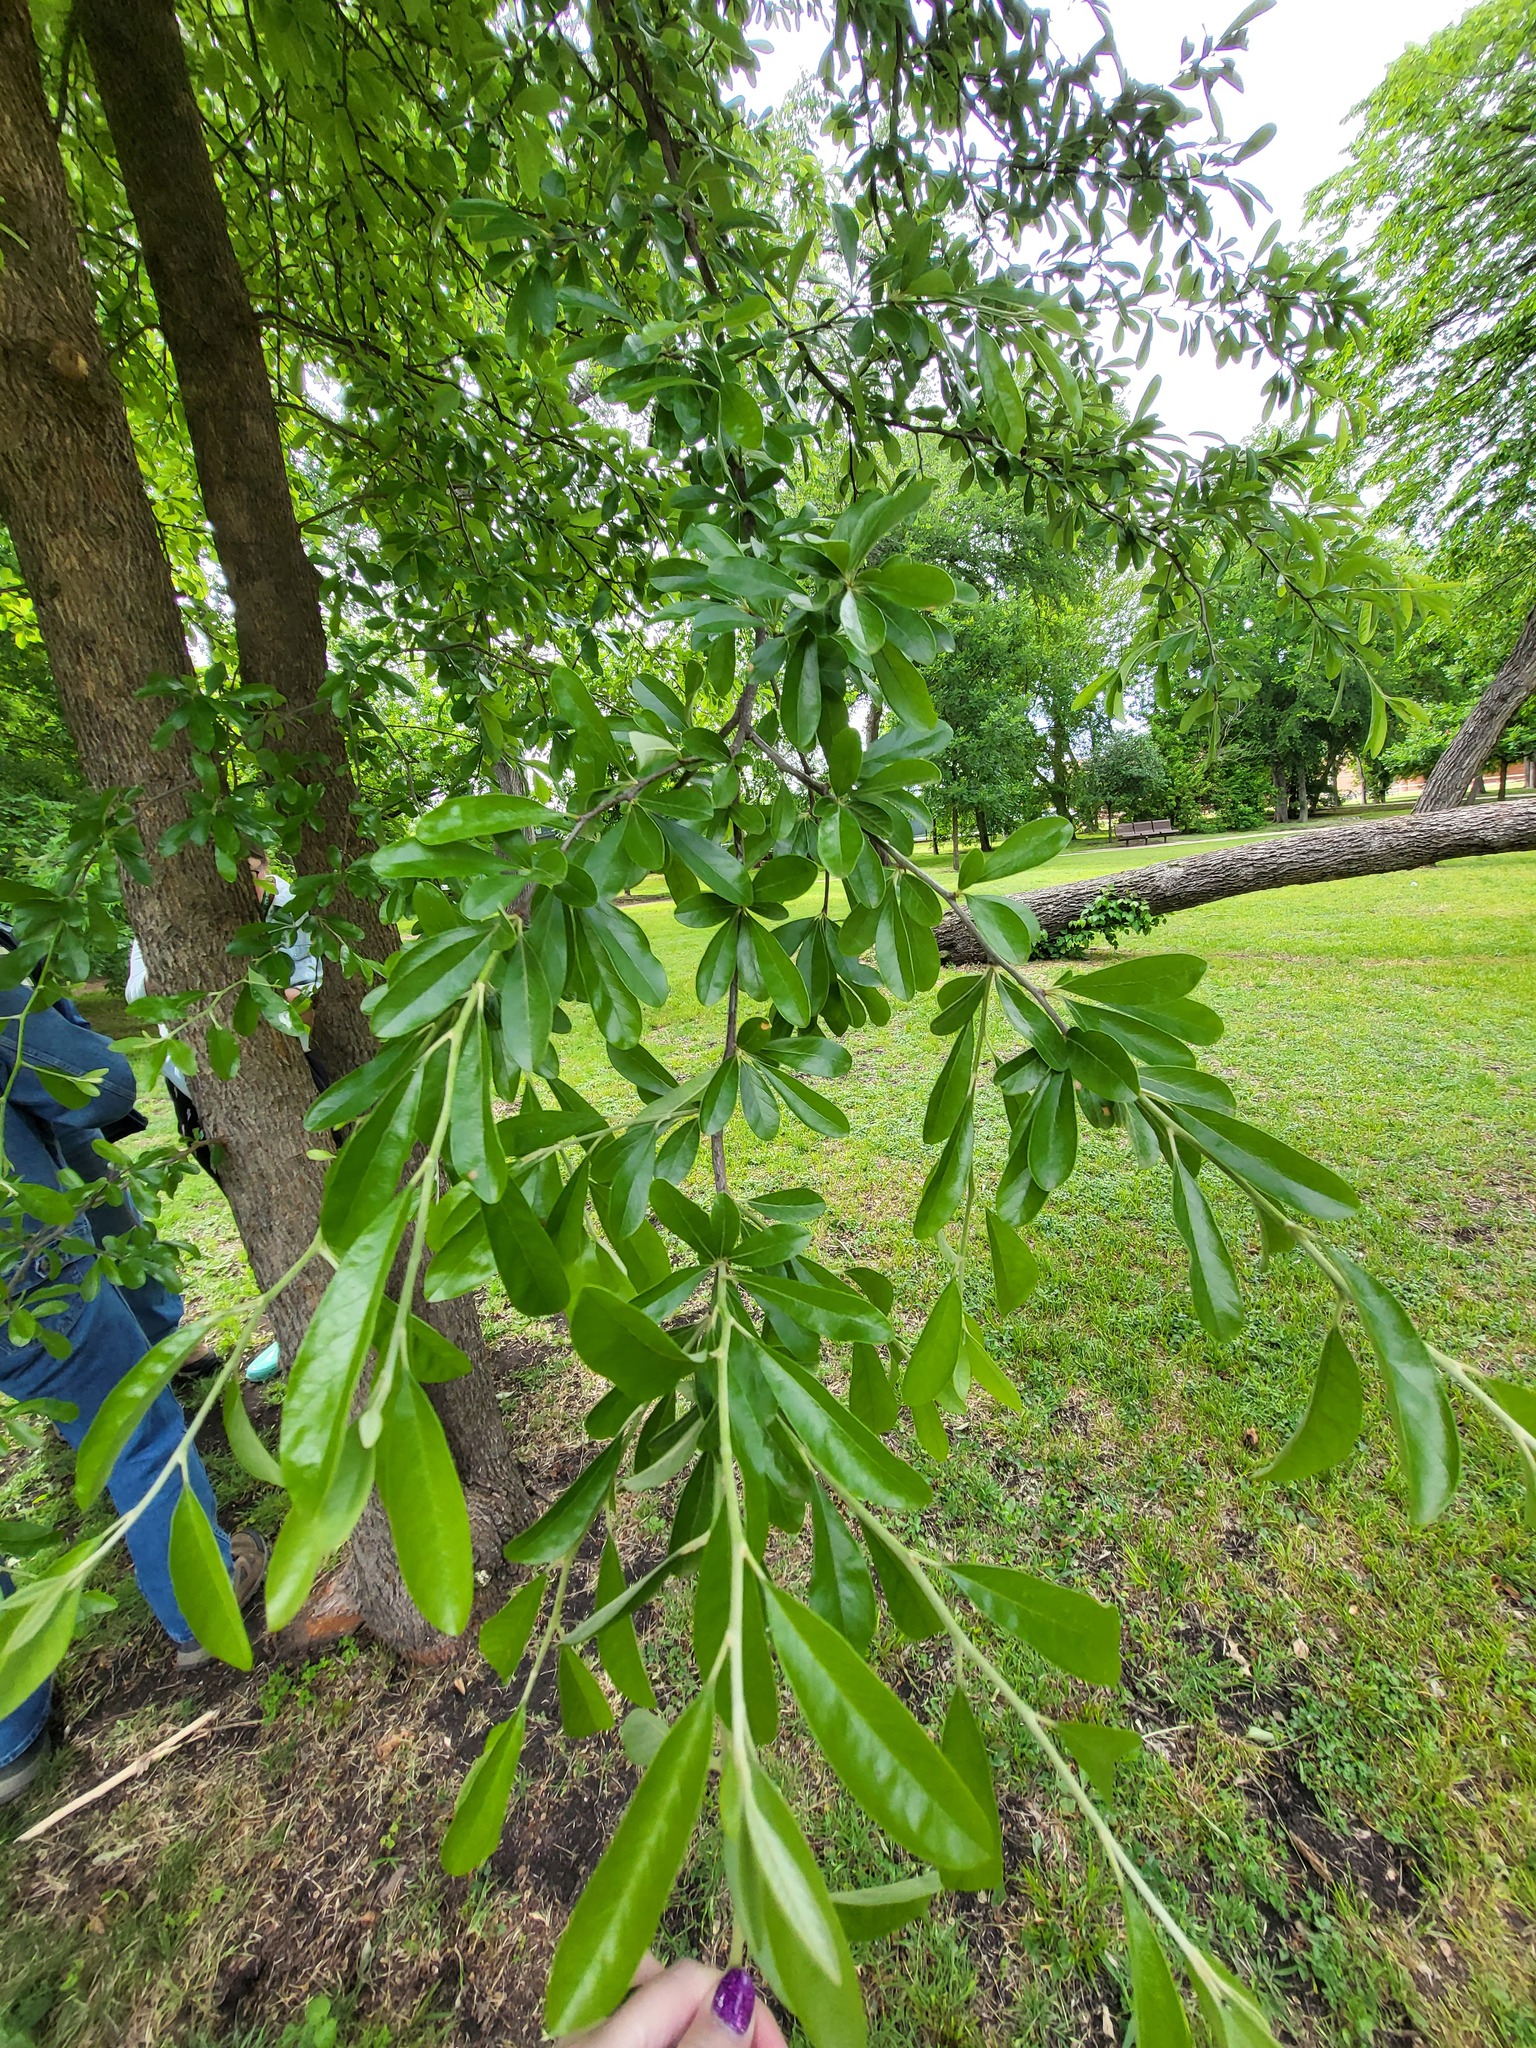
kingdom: Plantae
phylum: Tracheophyta
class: Magnoliopsida
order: Ericales
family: Sapotaceae
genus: Sideroxylon
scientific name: Sideroxylon lanuginosum
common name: Chittamwood
